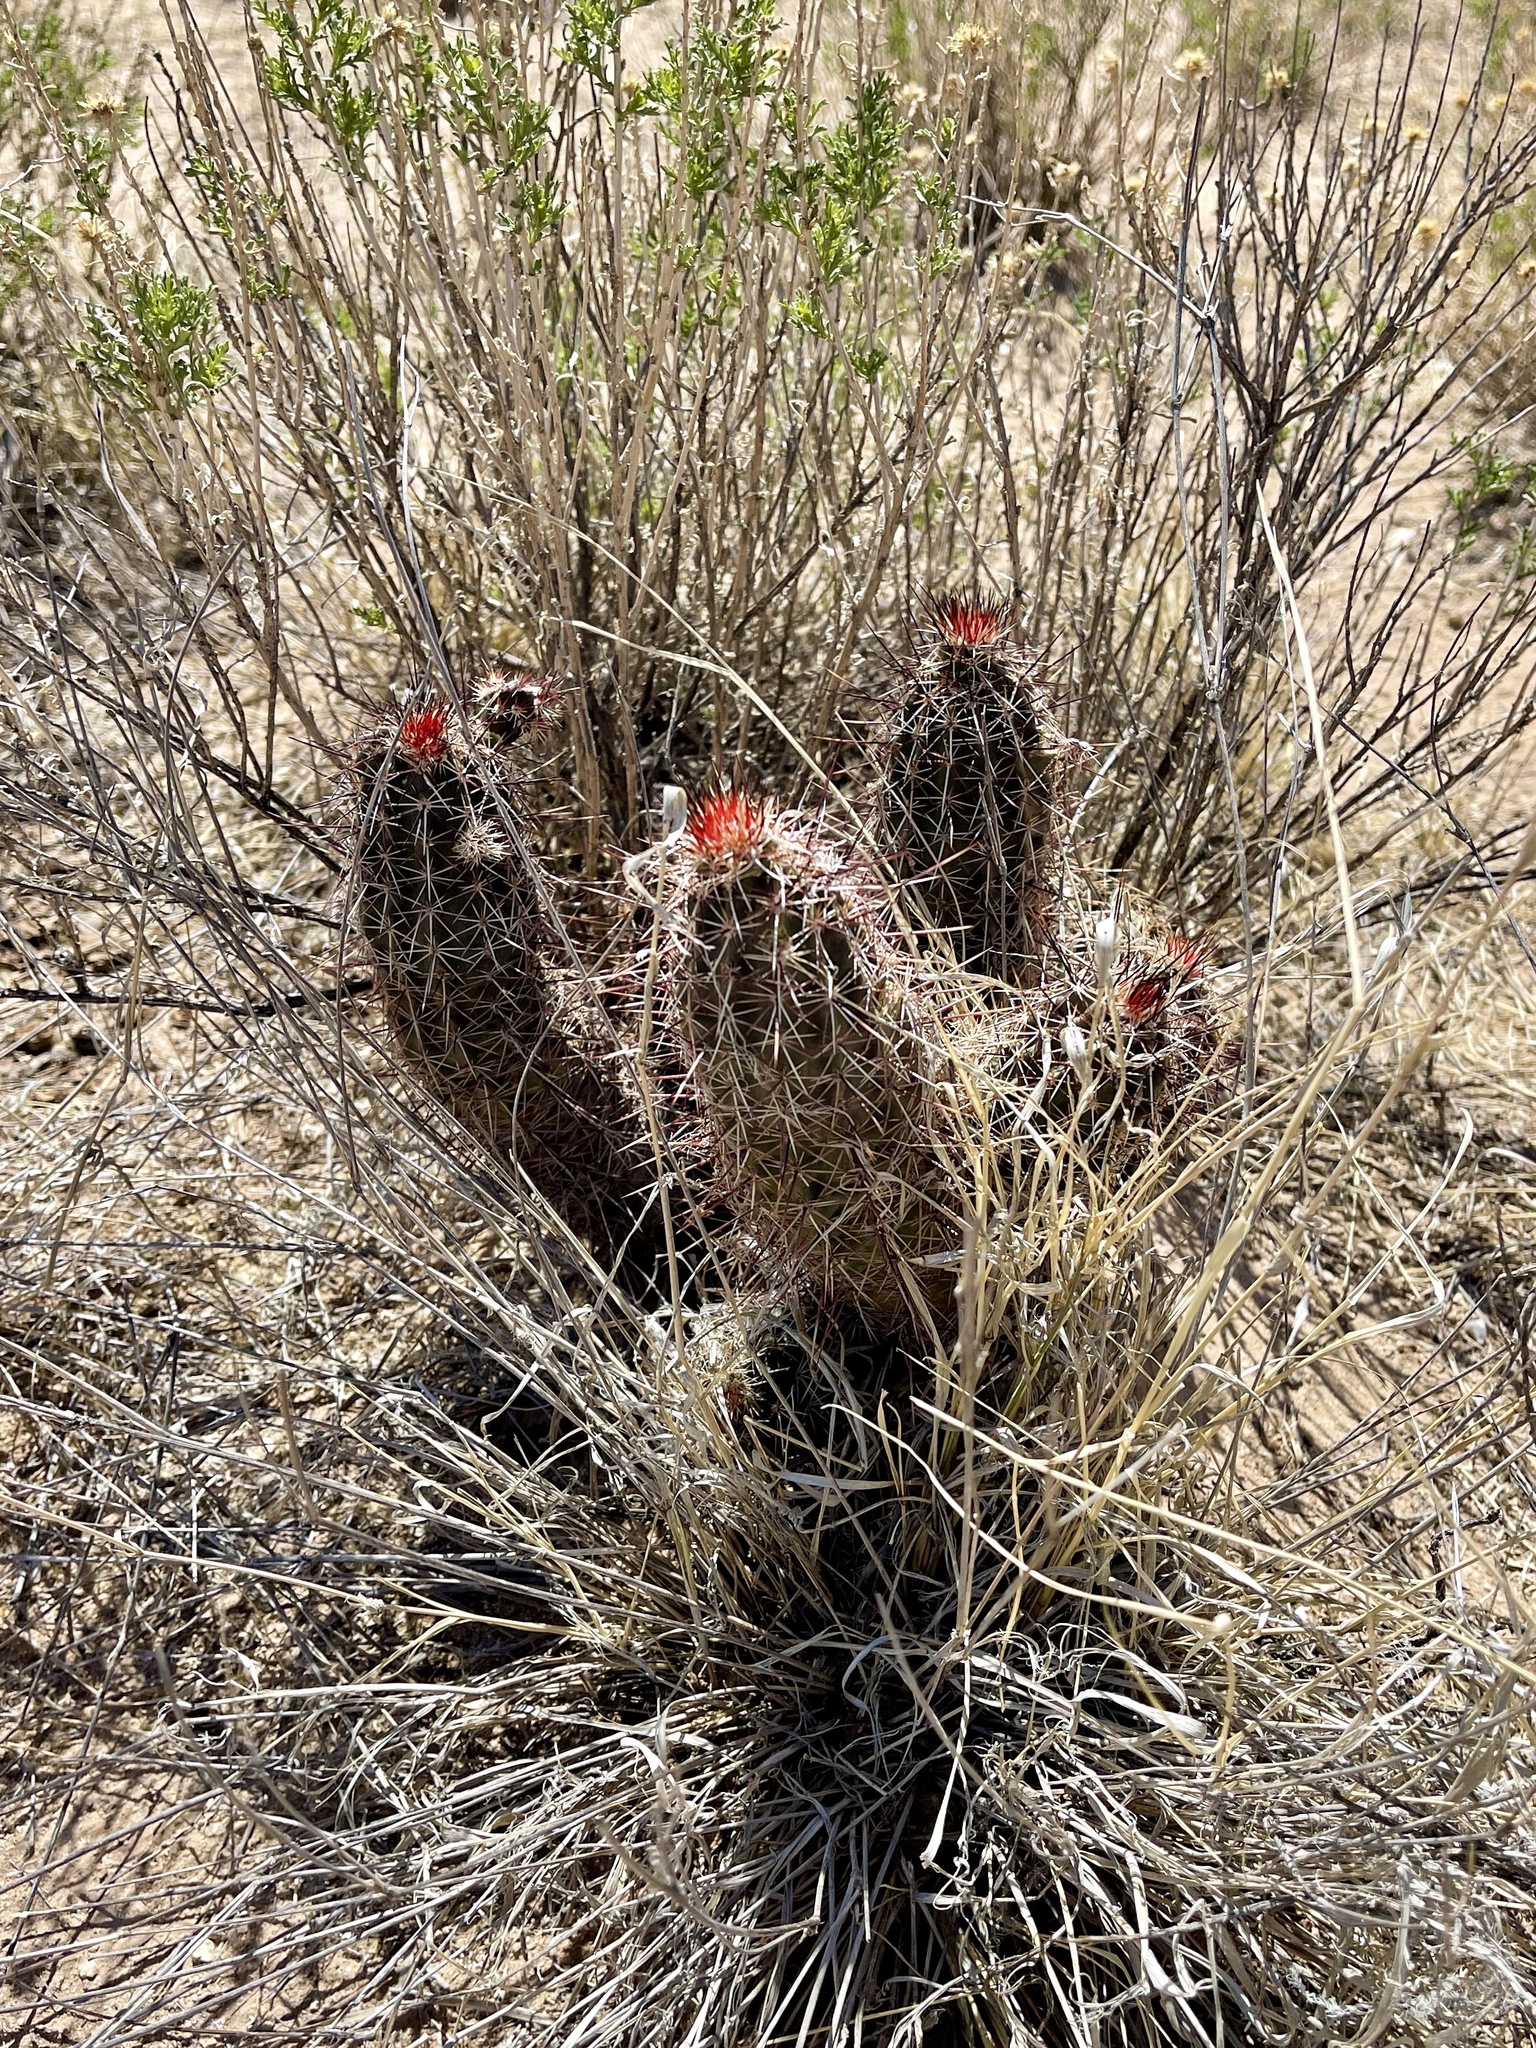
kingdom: Plantae
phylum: Tracheophyta
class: Magnoliopsida
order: Caryophyllales
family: Cactaceae
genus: Echinocereus
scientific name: Echinocereus fasciculatus
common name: Bundle hedgehog
